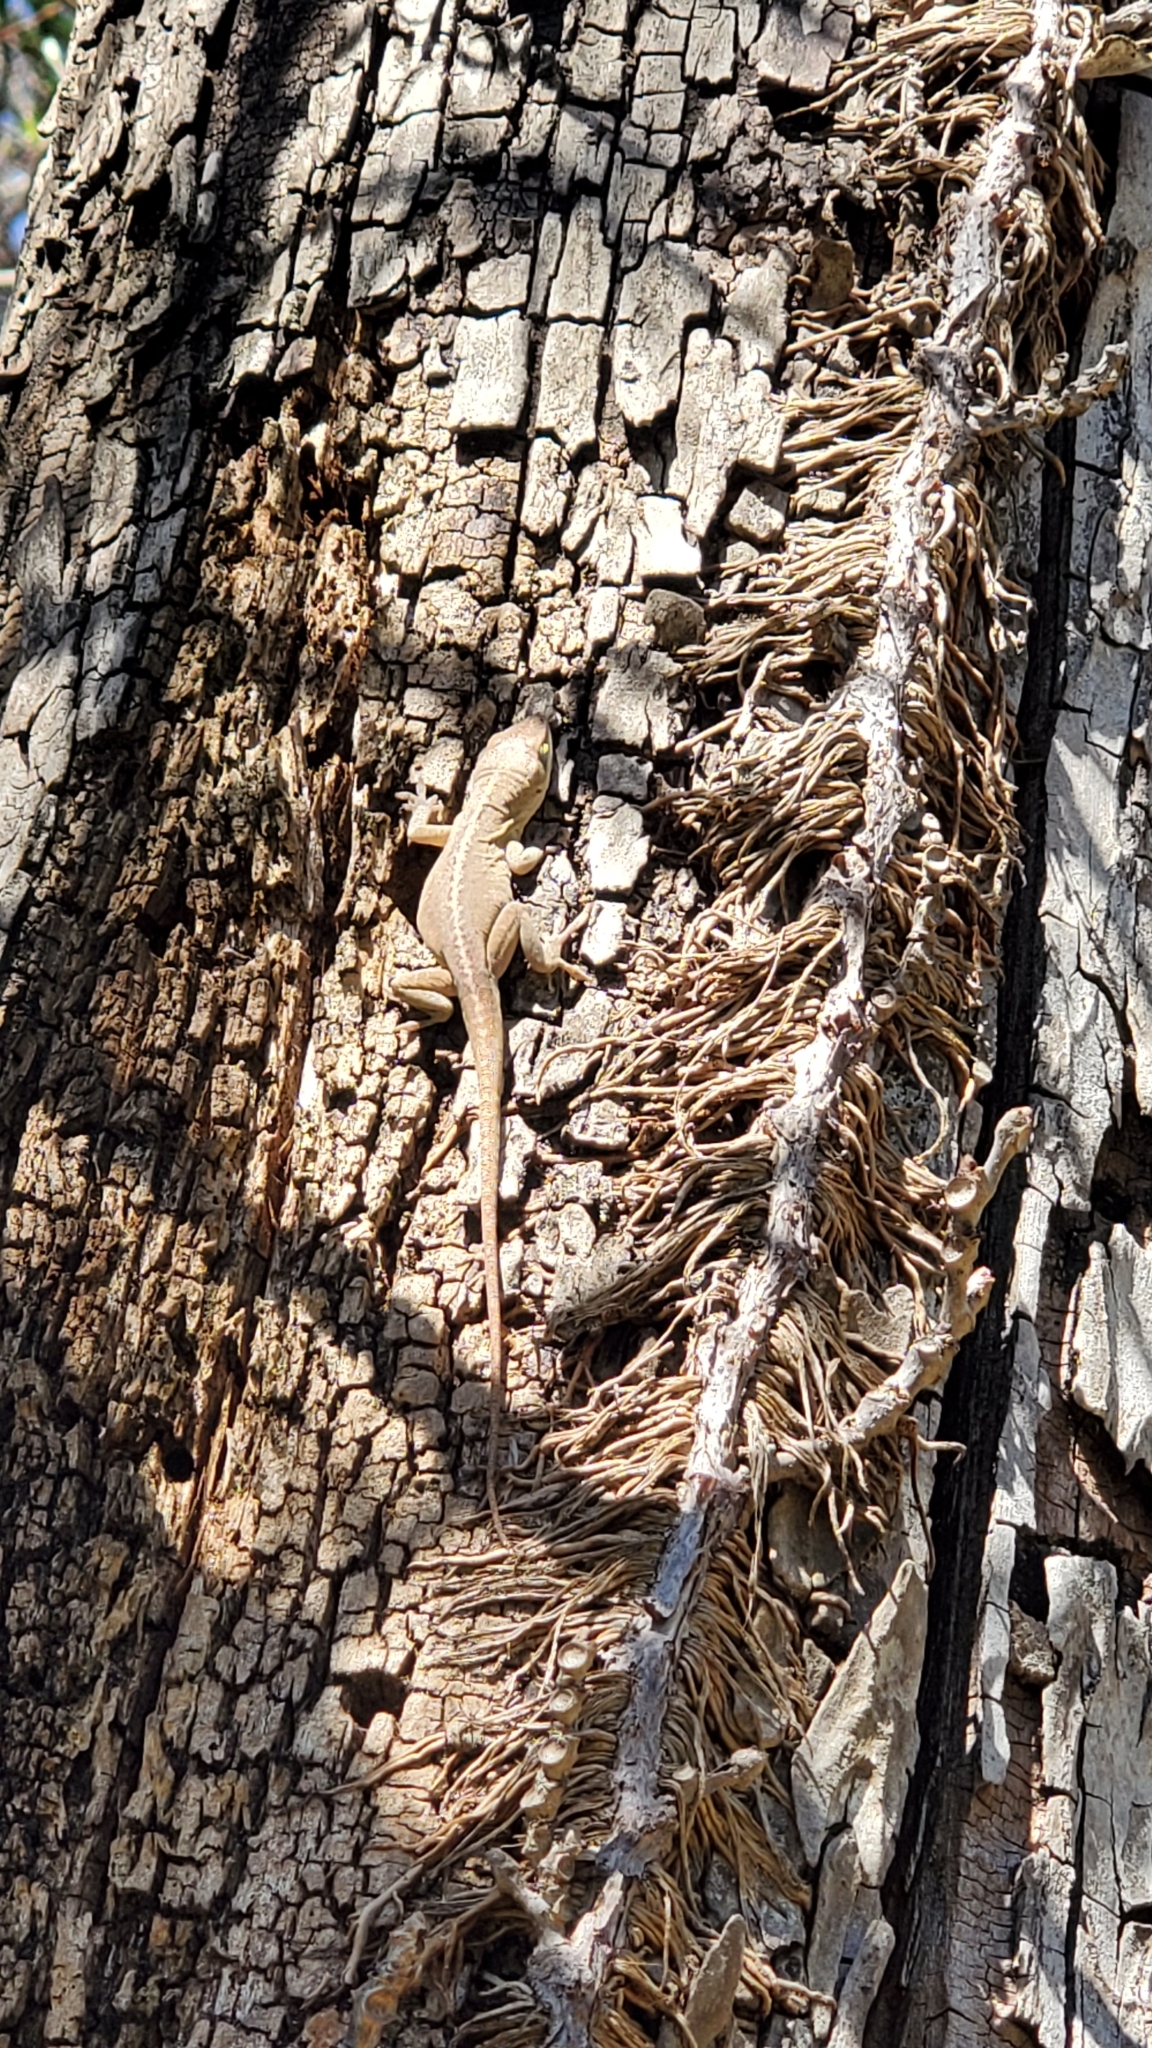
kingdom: Animalia
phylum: Chordata
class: Squamata
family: Dactyloidae
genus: Anolis
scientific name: Anolis carolinensis
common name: Green anole
